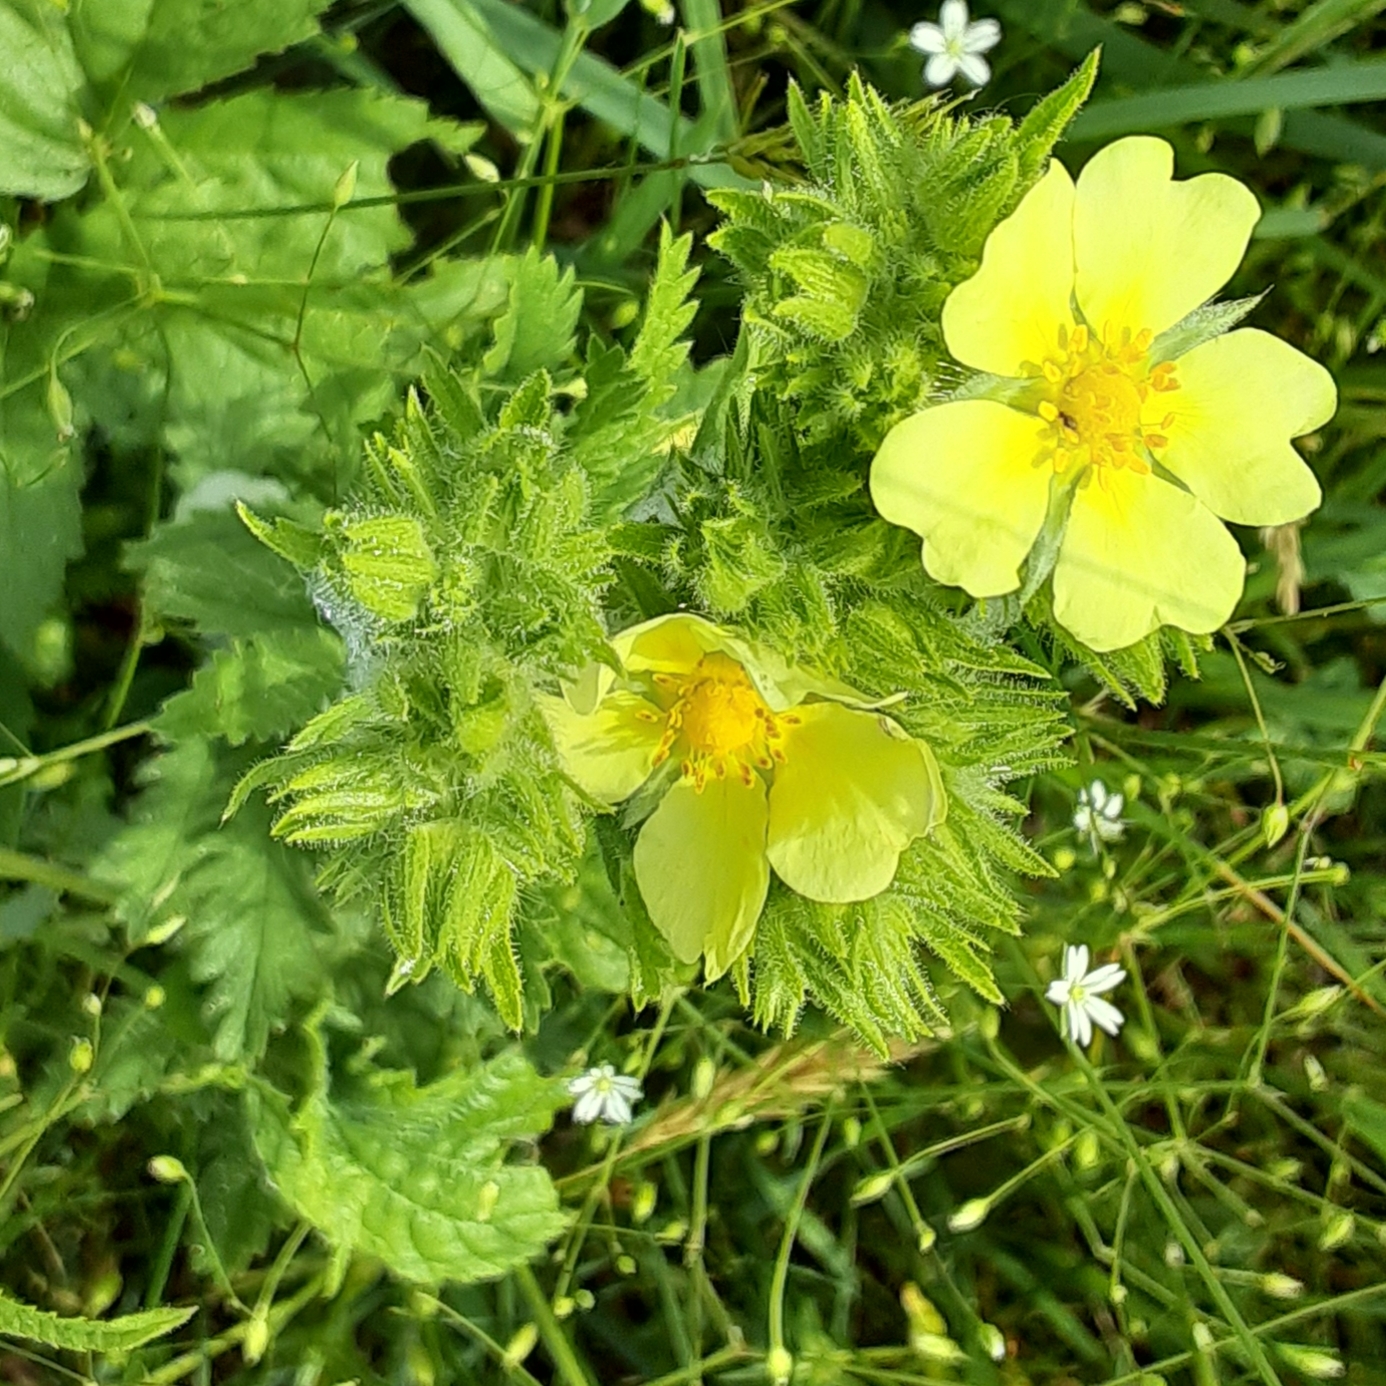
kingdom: Plantae
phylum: Tracheophyta
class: Magnoliopsida
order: Rosales
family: Rosaceae
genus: Potentilla
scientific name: Potentilla recta
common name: Sulphur cinquefoil
